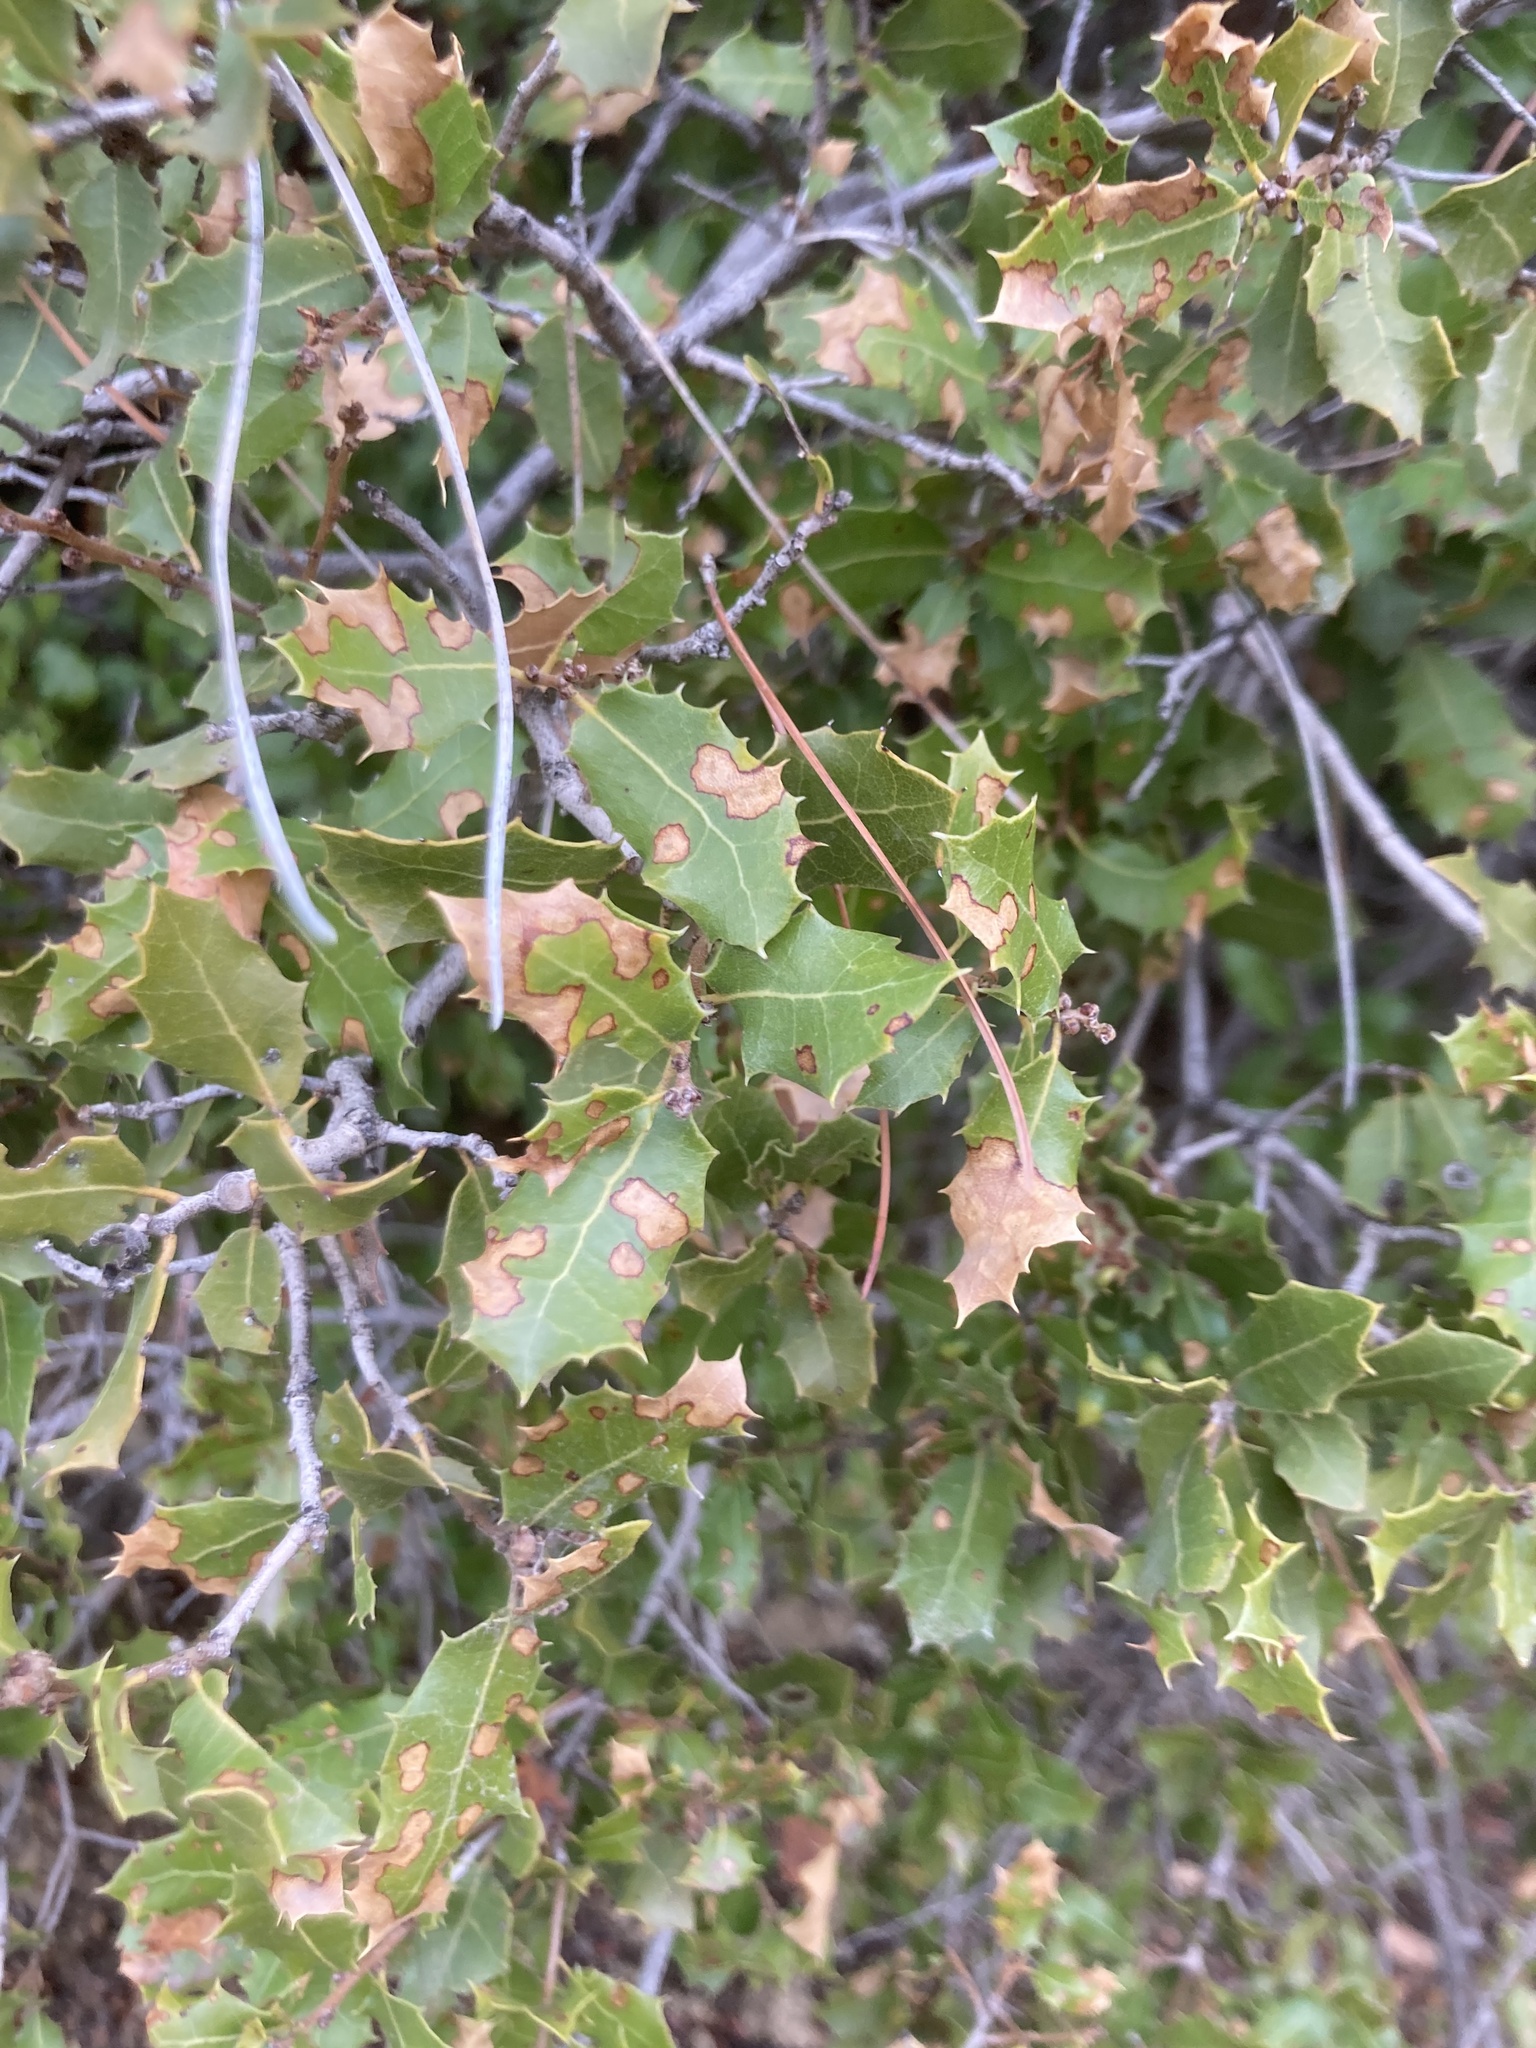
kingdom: Plantae
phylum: Tracheophyta
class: Magnoliopsida
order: Fagales
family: Fagaceae
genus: Quercus
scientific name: Quercus coccifera
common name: Kermes oak
